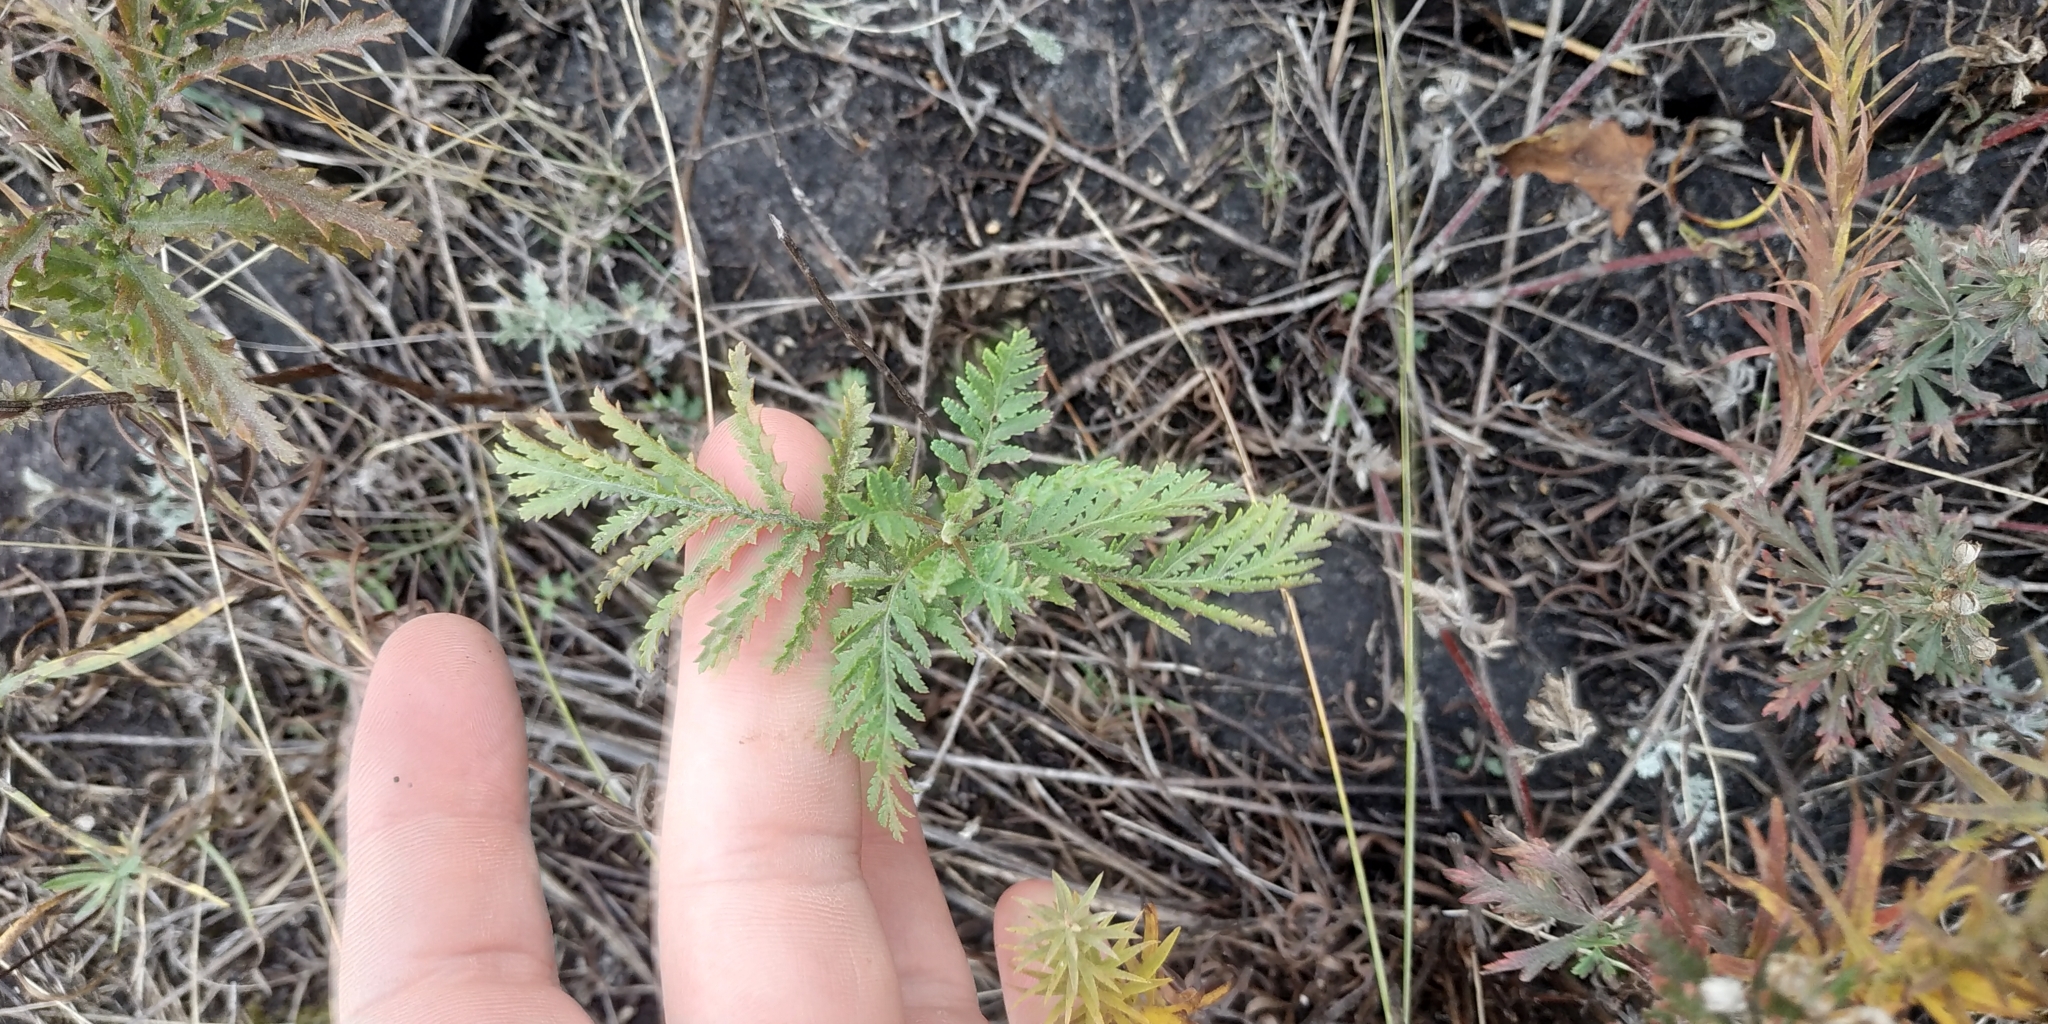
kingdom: Plantae
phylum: Tracheophyta
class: Magnoliopsida
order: Asterales
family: Asteraceae
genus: Tanacetum
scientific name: Tanacetum vulgare
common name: Common tansy
